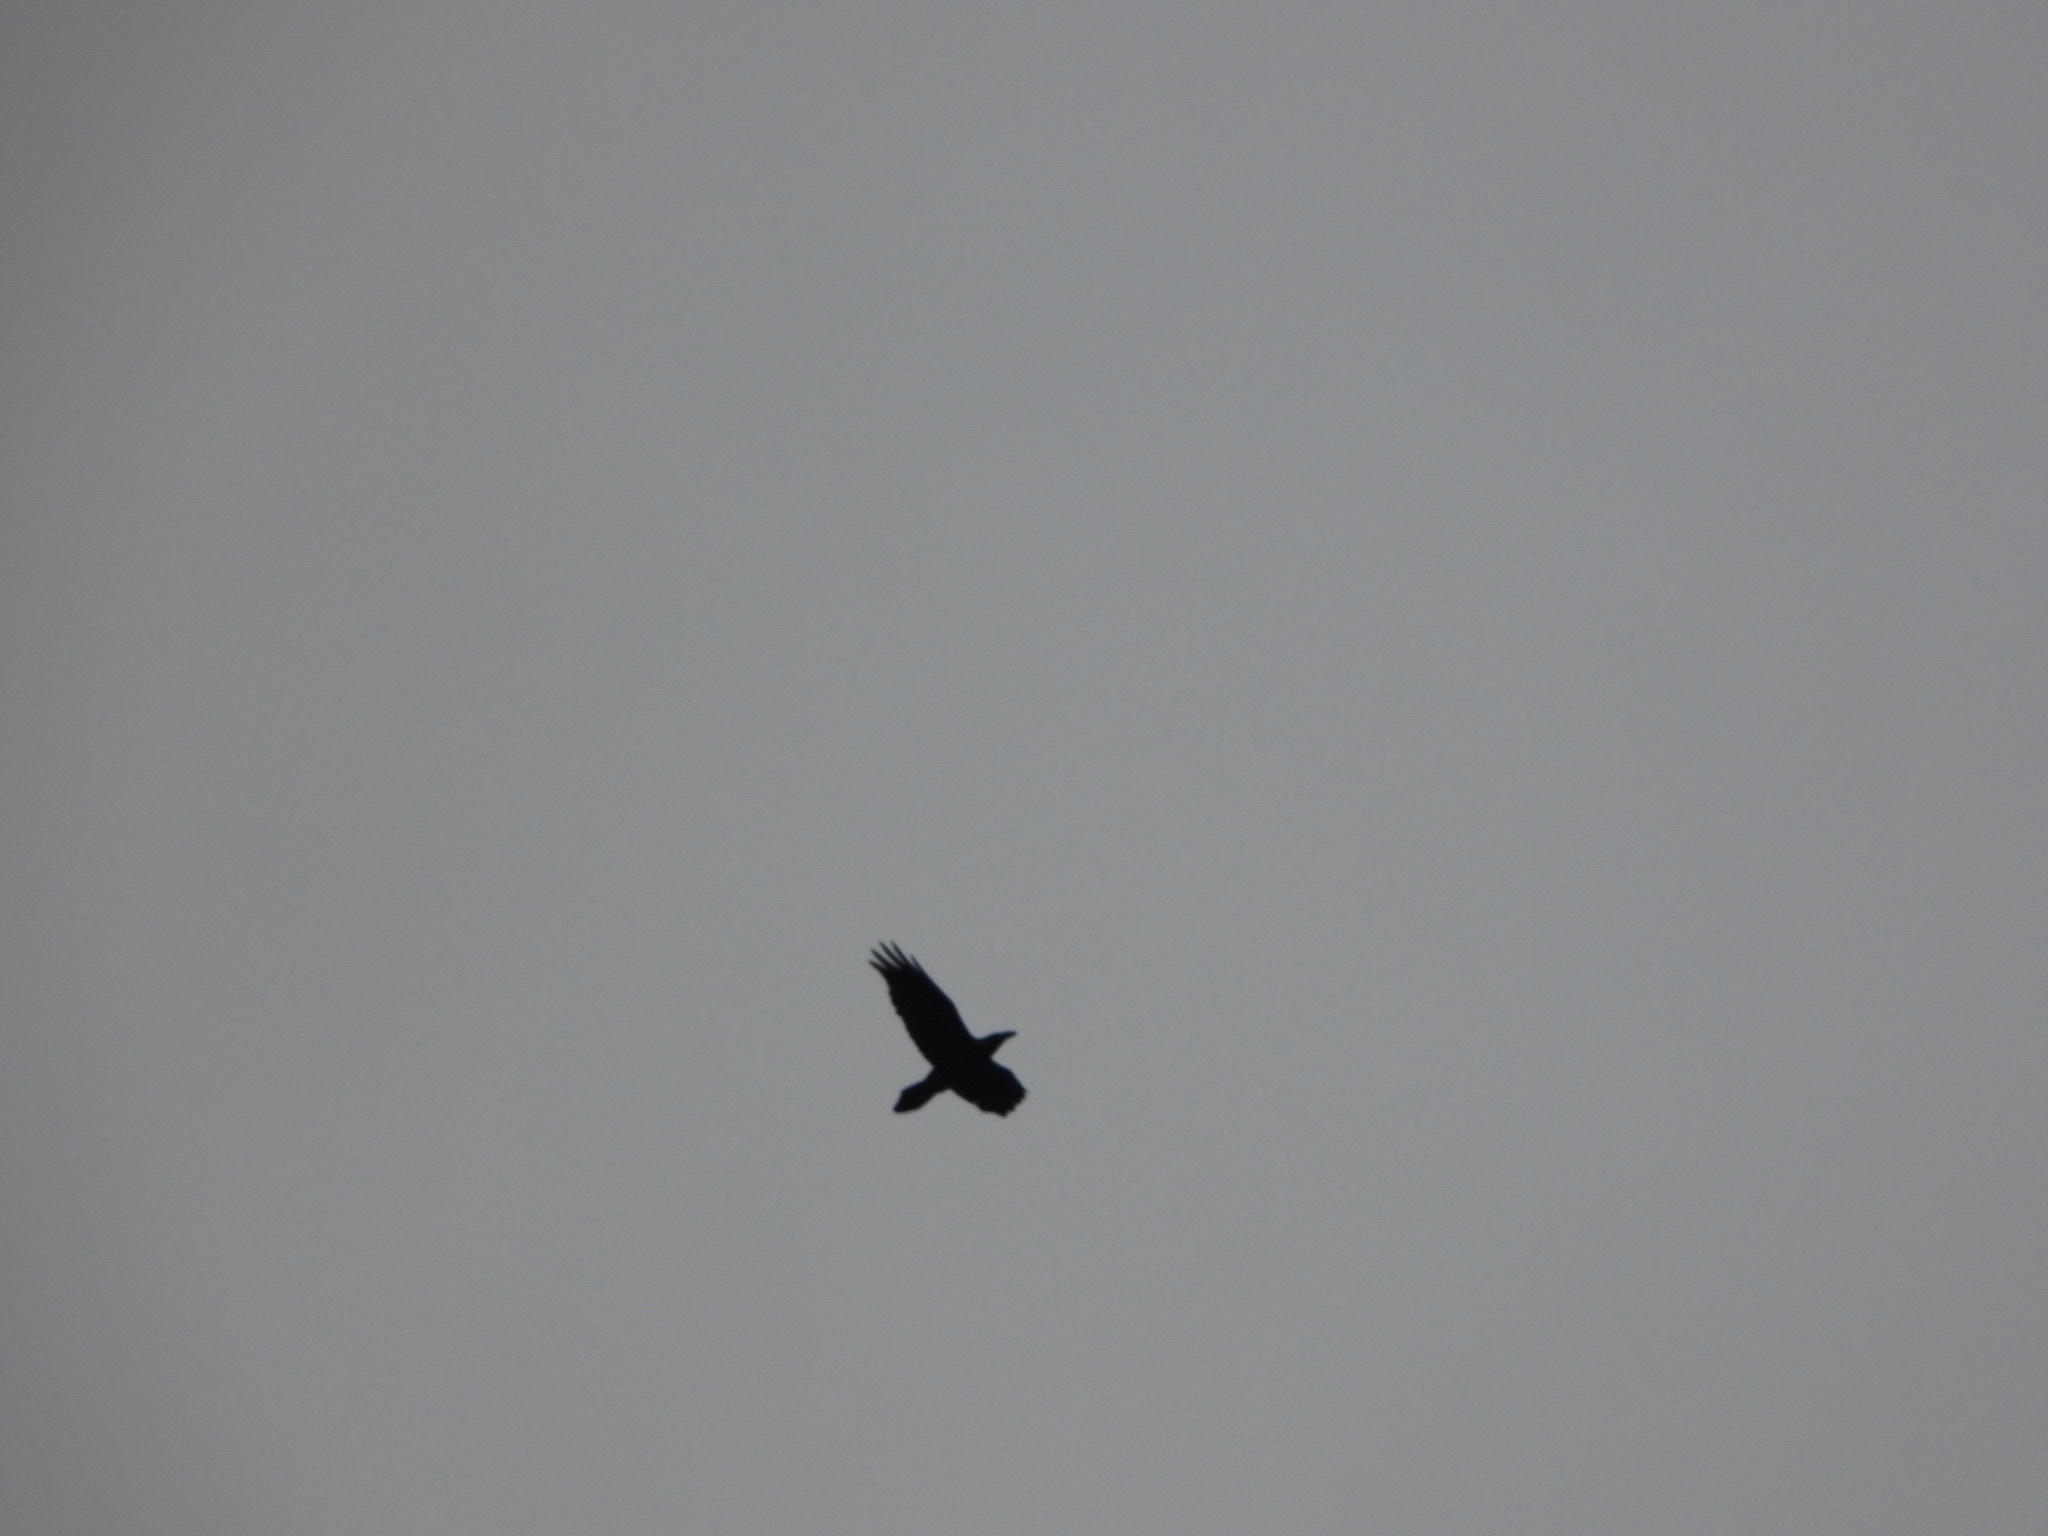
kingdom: Animalia
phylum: Chordata
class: Aves
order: Passeriformes
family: Corvidae
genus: Corvus
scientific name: Corvus corax
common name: Common raven
